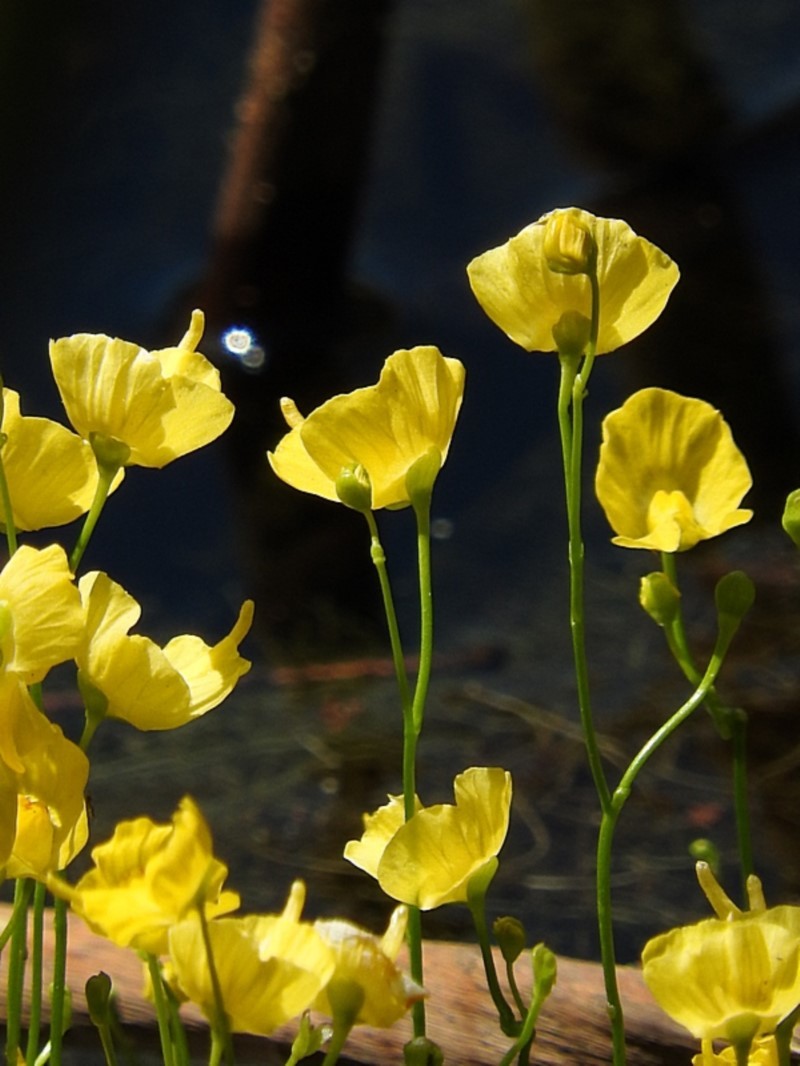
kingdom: Plantae
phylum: Tracheophyta
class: Magnoliopsida
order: Lamiales
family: Lentibulariaceae
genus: Utricularia
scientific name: Utricularia gibba
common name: Humped bladderwort
